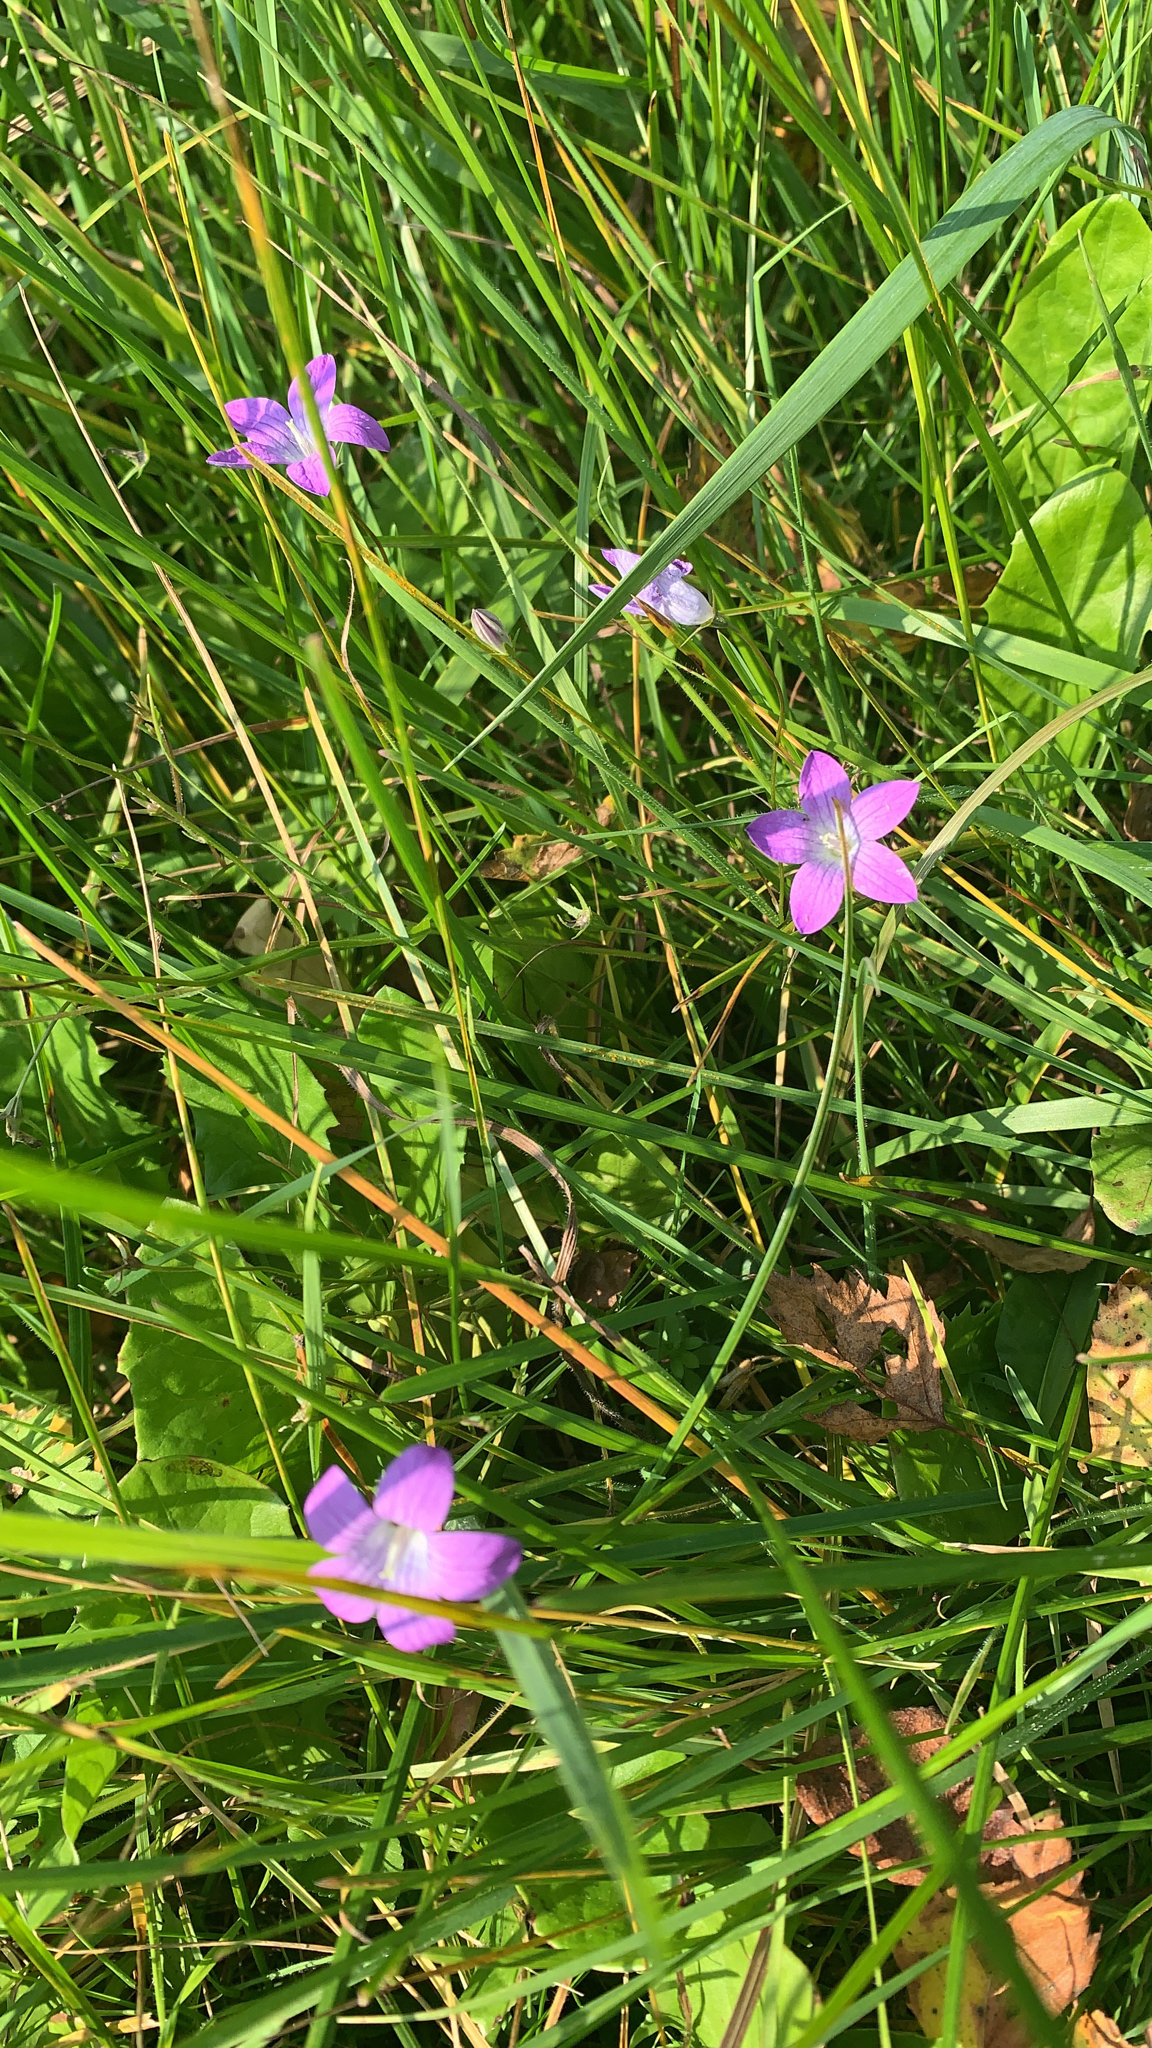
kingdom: Plantae
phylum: Tracheophyta
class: Magnoliopsida
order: Asterales
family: Campanulaceae
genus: Campanula
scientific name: Campanula patula
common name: Spreading bellflower
